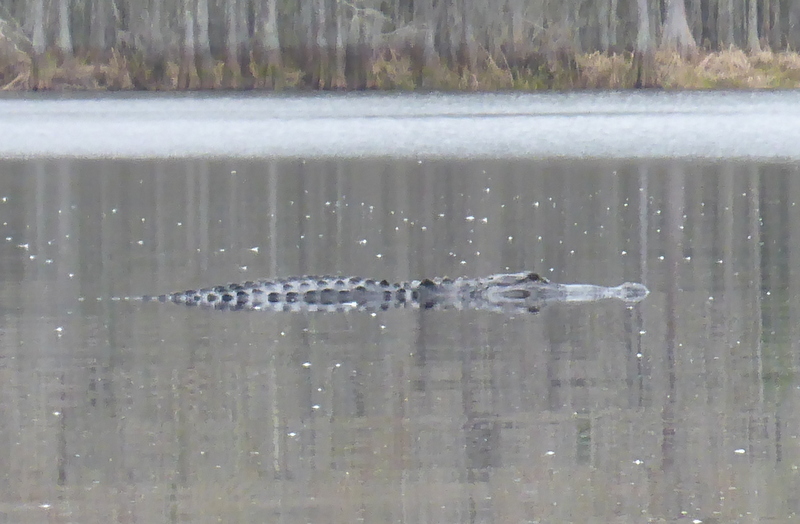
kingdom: Animalia
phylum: Chordata
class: Crocodylia
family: Alligatoridae
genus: Alligator
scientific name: Alligator mississippiensis
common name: American alligator
